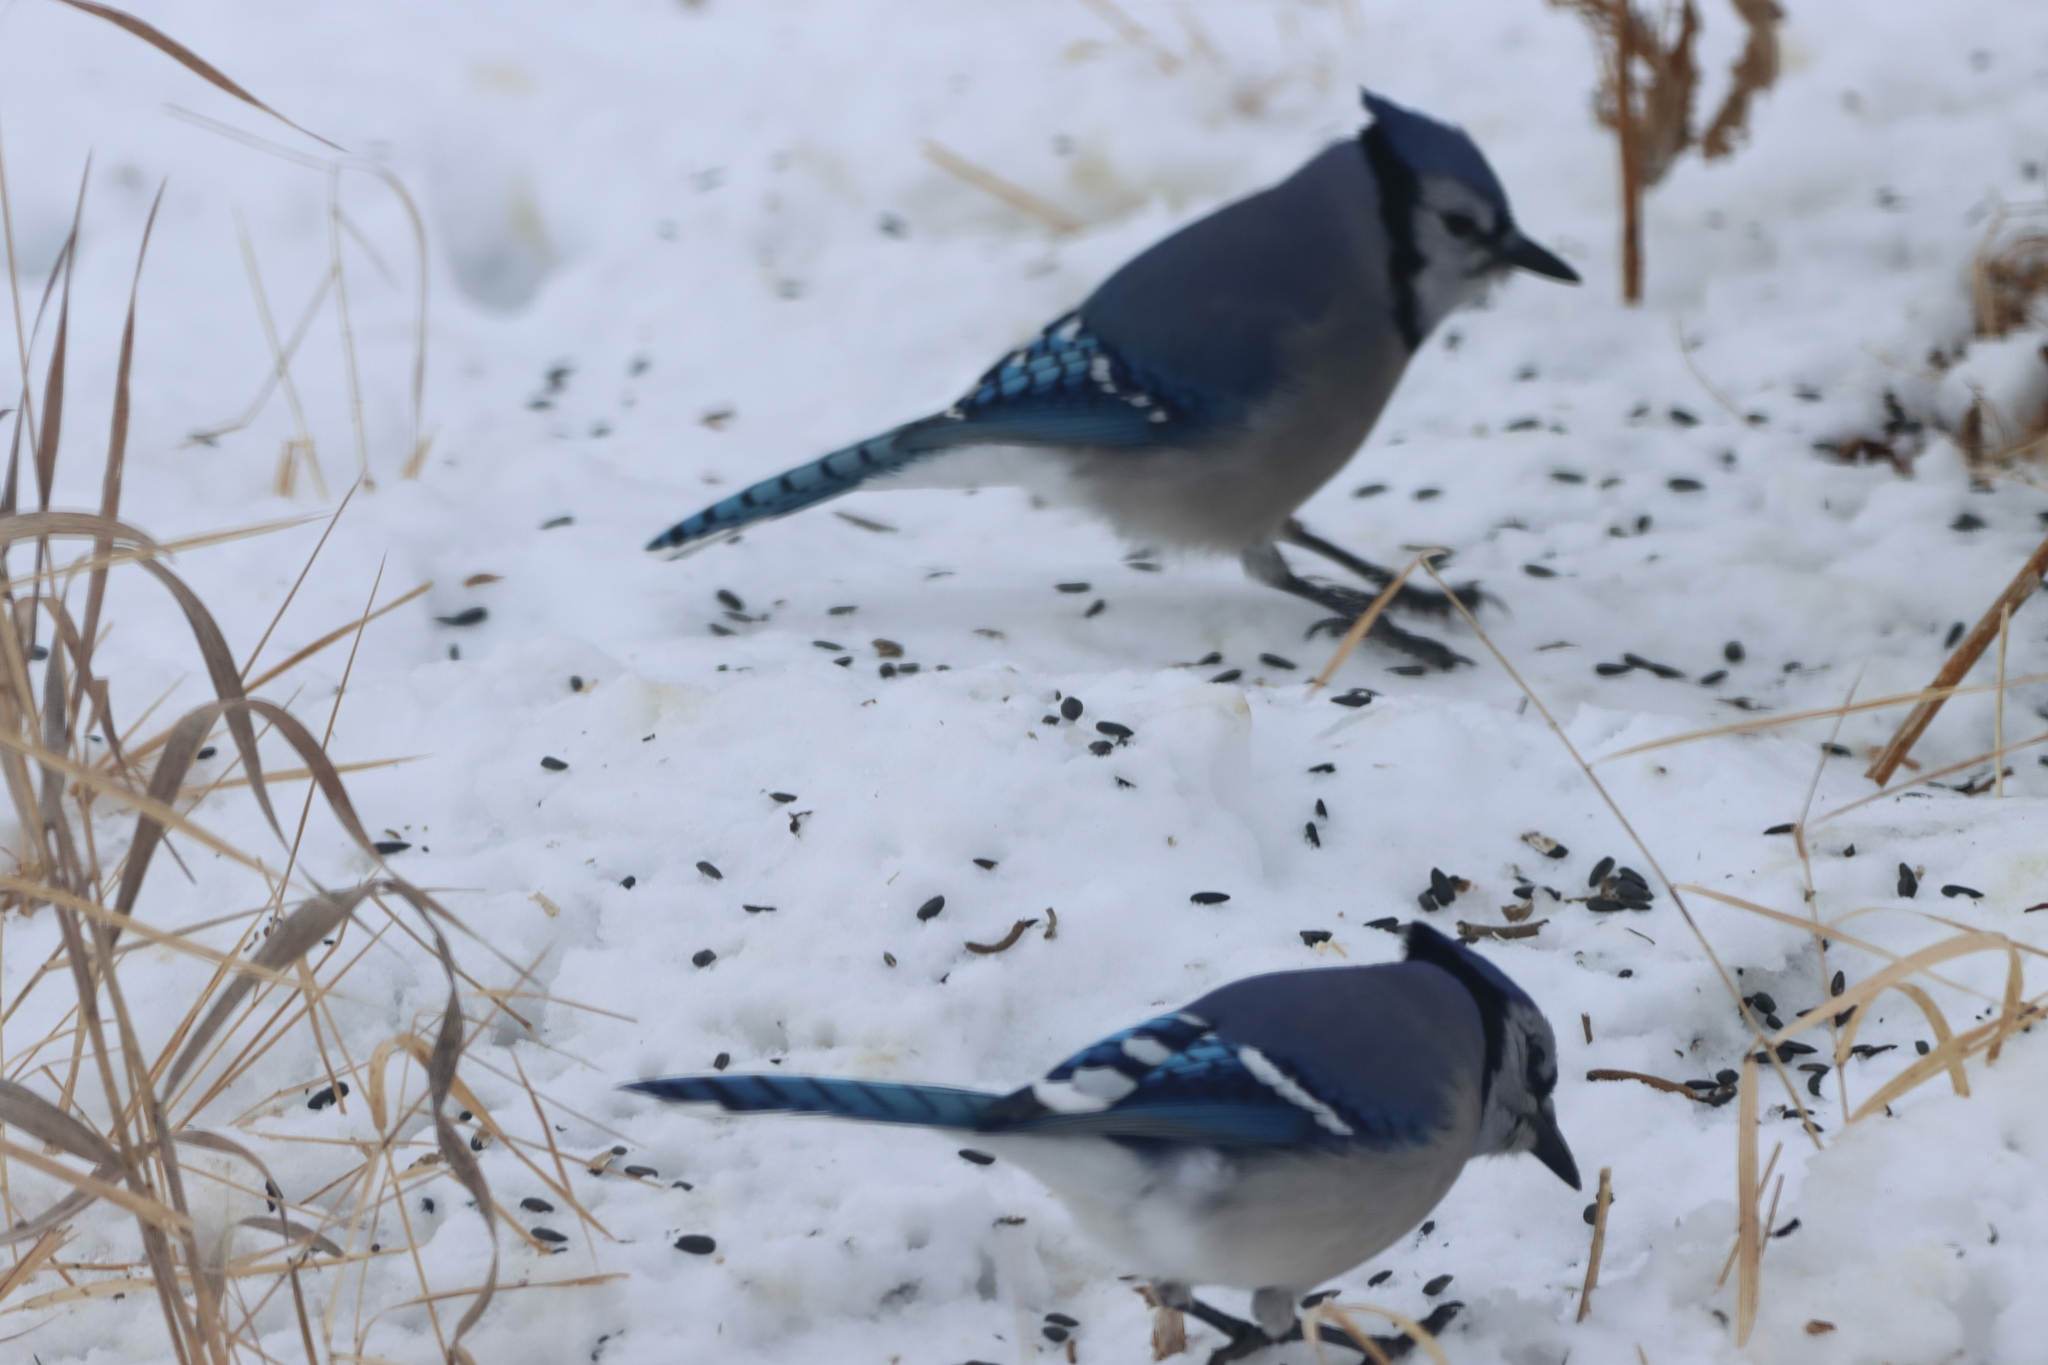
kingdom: Animalia
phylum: Chordata
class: Aves
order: Passeriformes
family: Corvidae
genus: Cyanocitta
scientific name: Cyanocitta cristata
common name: Blue jay
